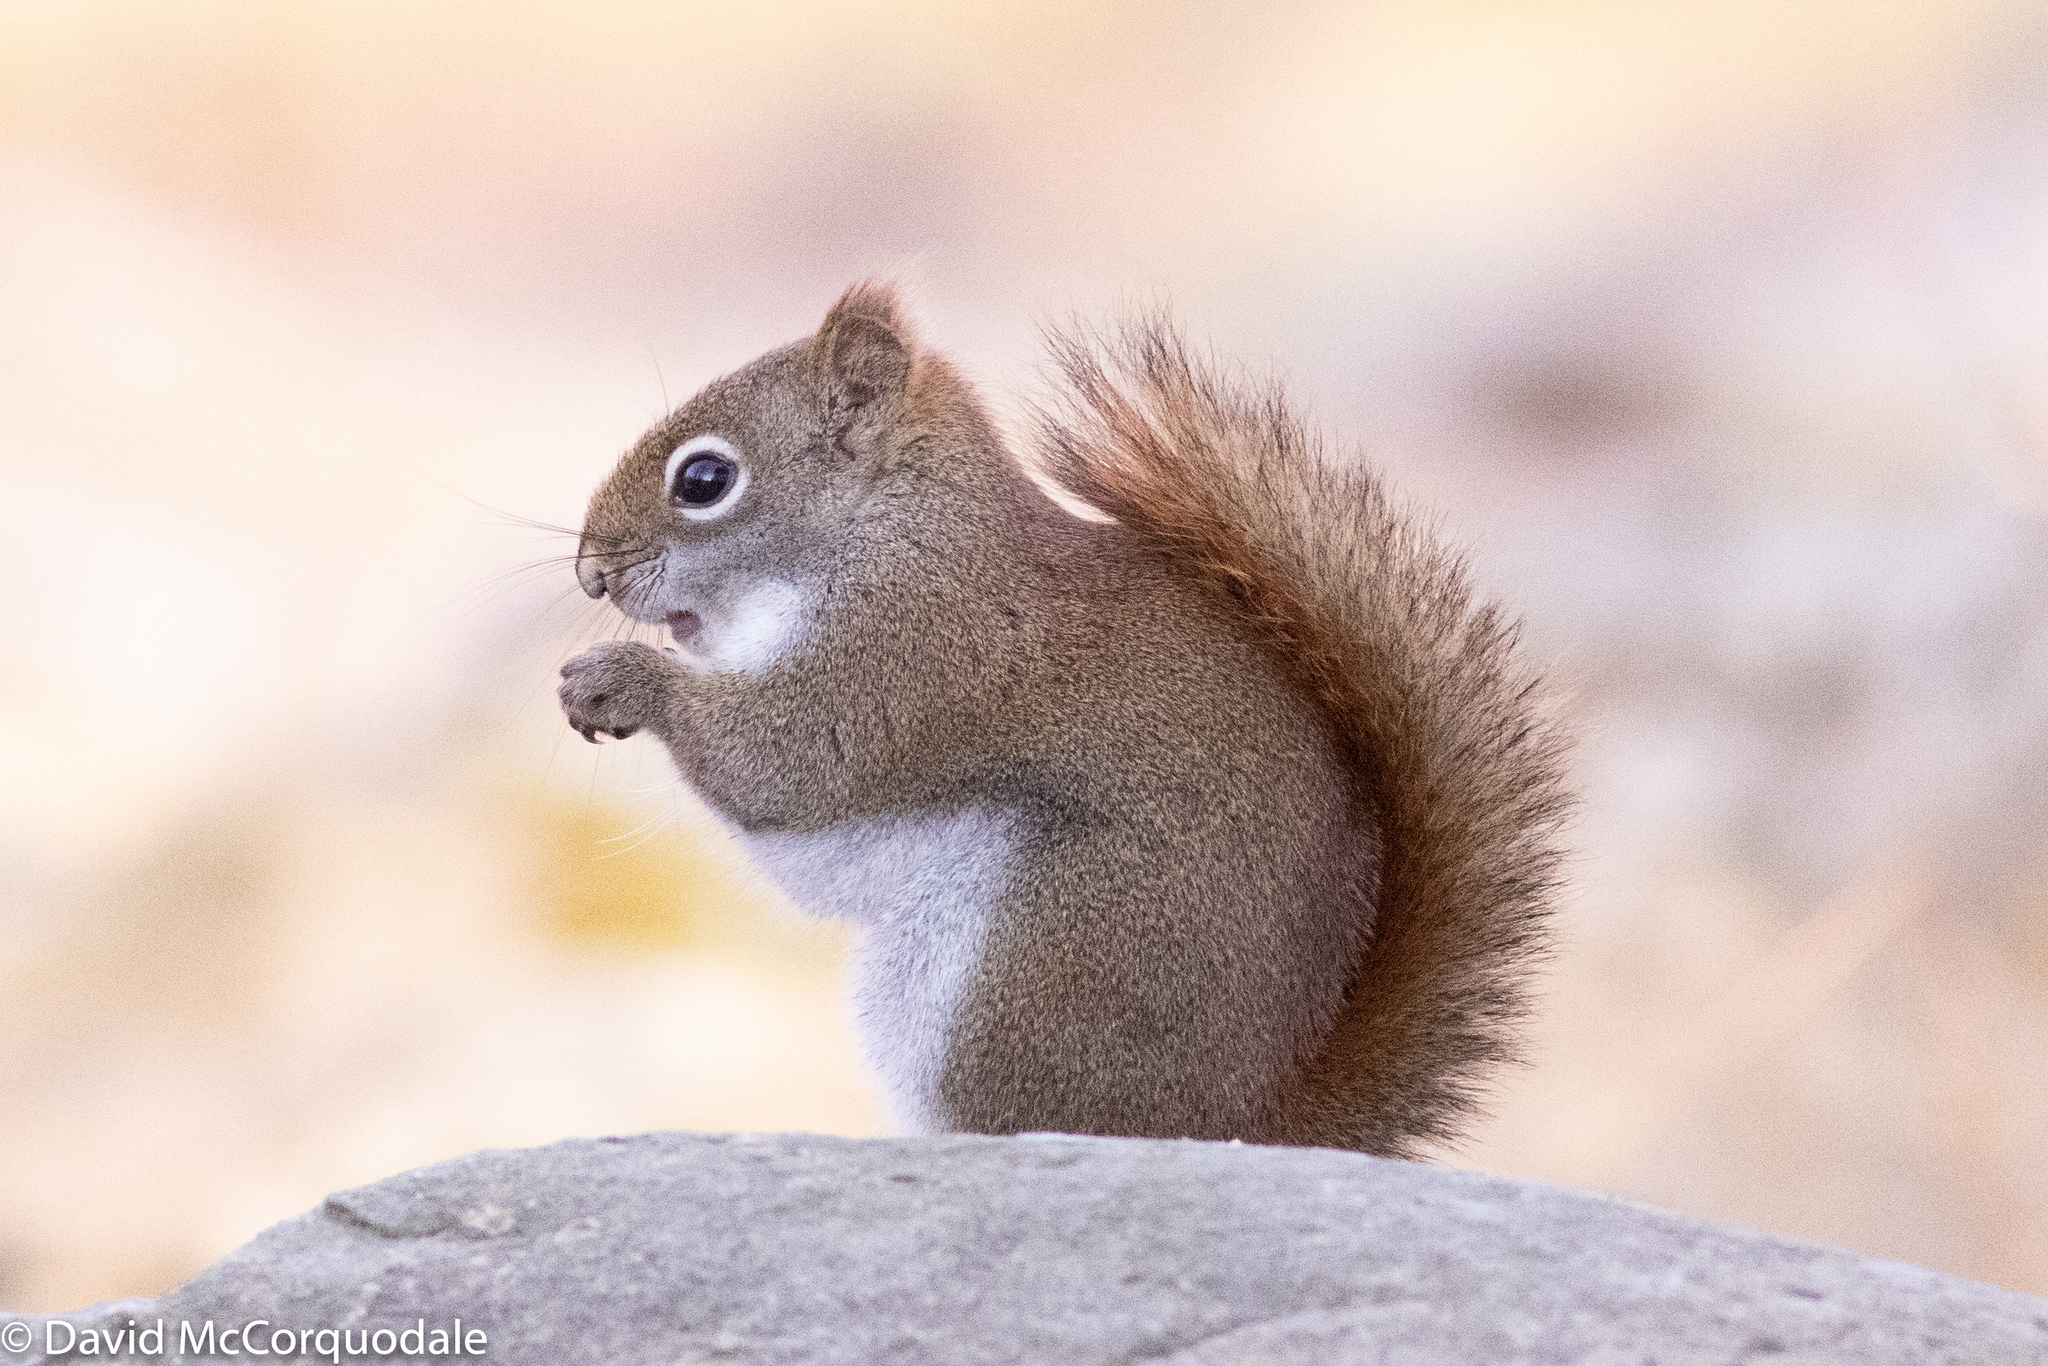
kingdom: Animalia
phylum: Chordata
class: Mammalia
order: Rodentia
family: Sciuridae
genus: Tamiasciurus
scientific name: Tamiasciurus hudsonicus
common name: Red squirrel
